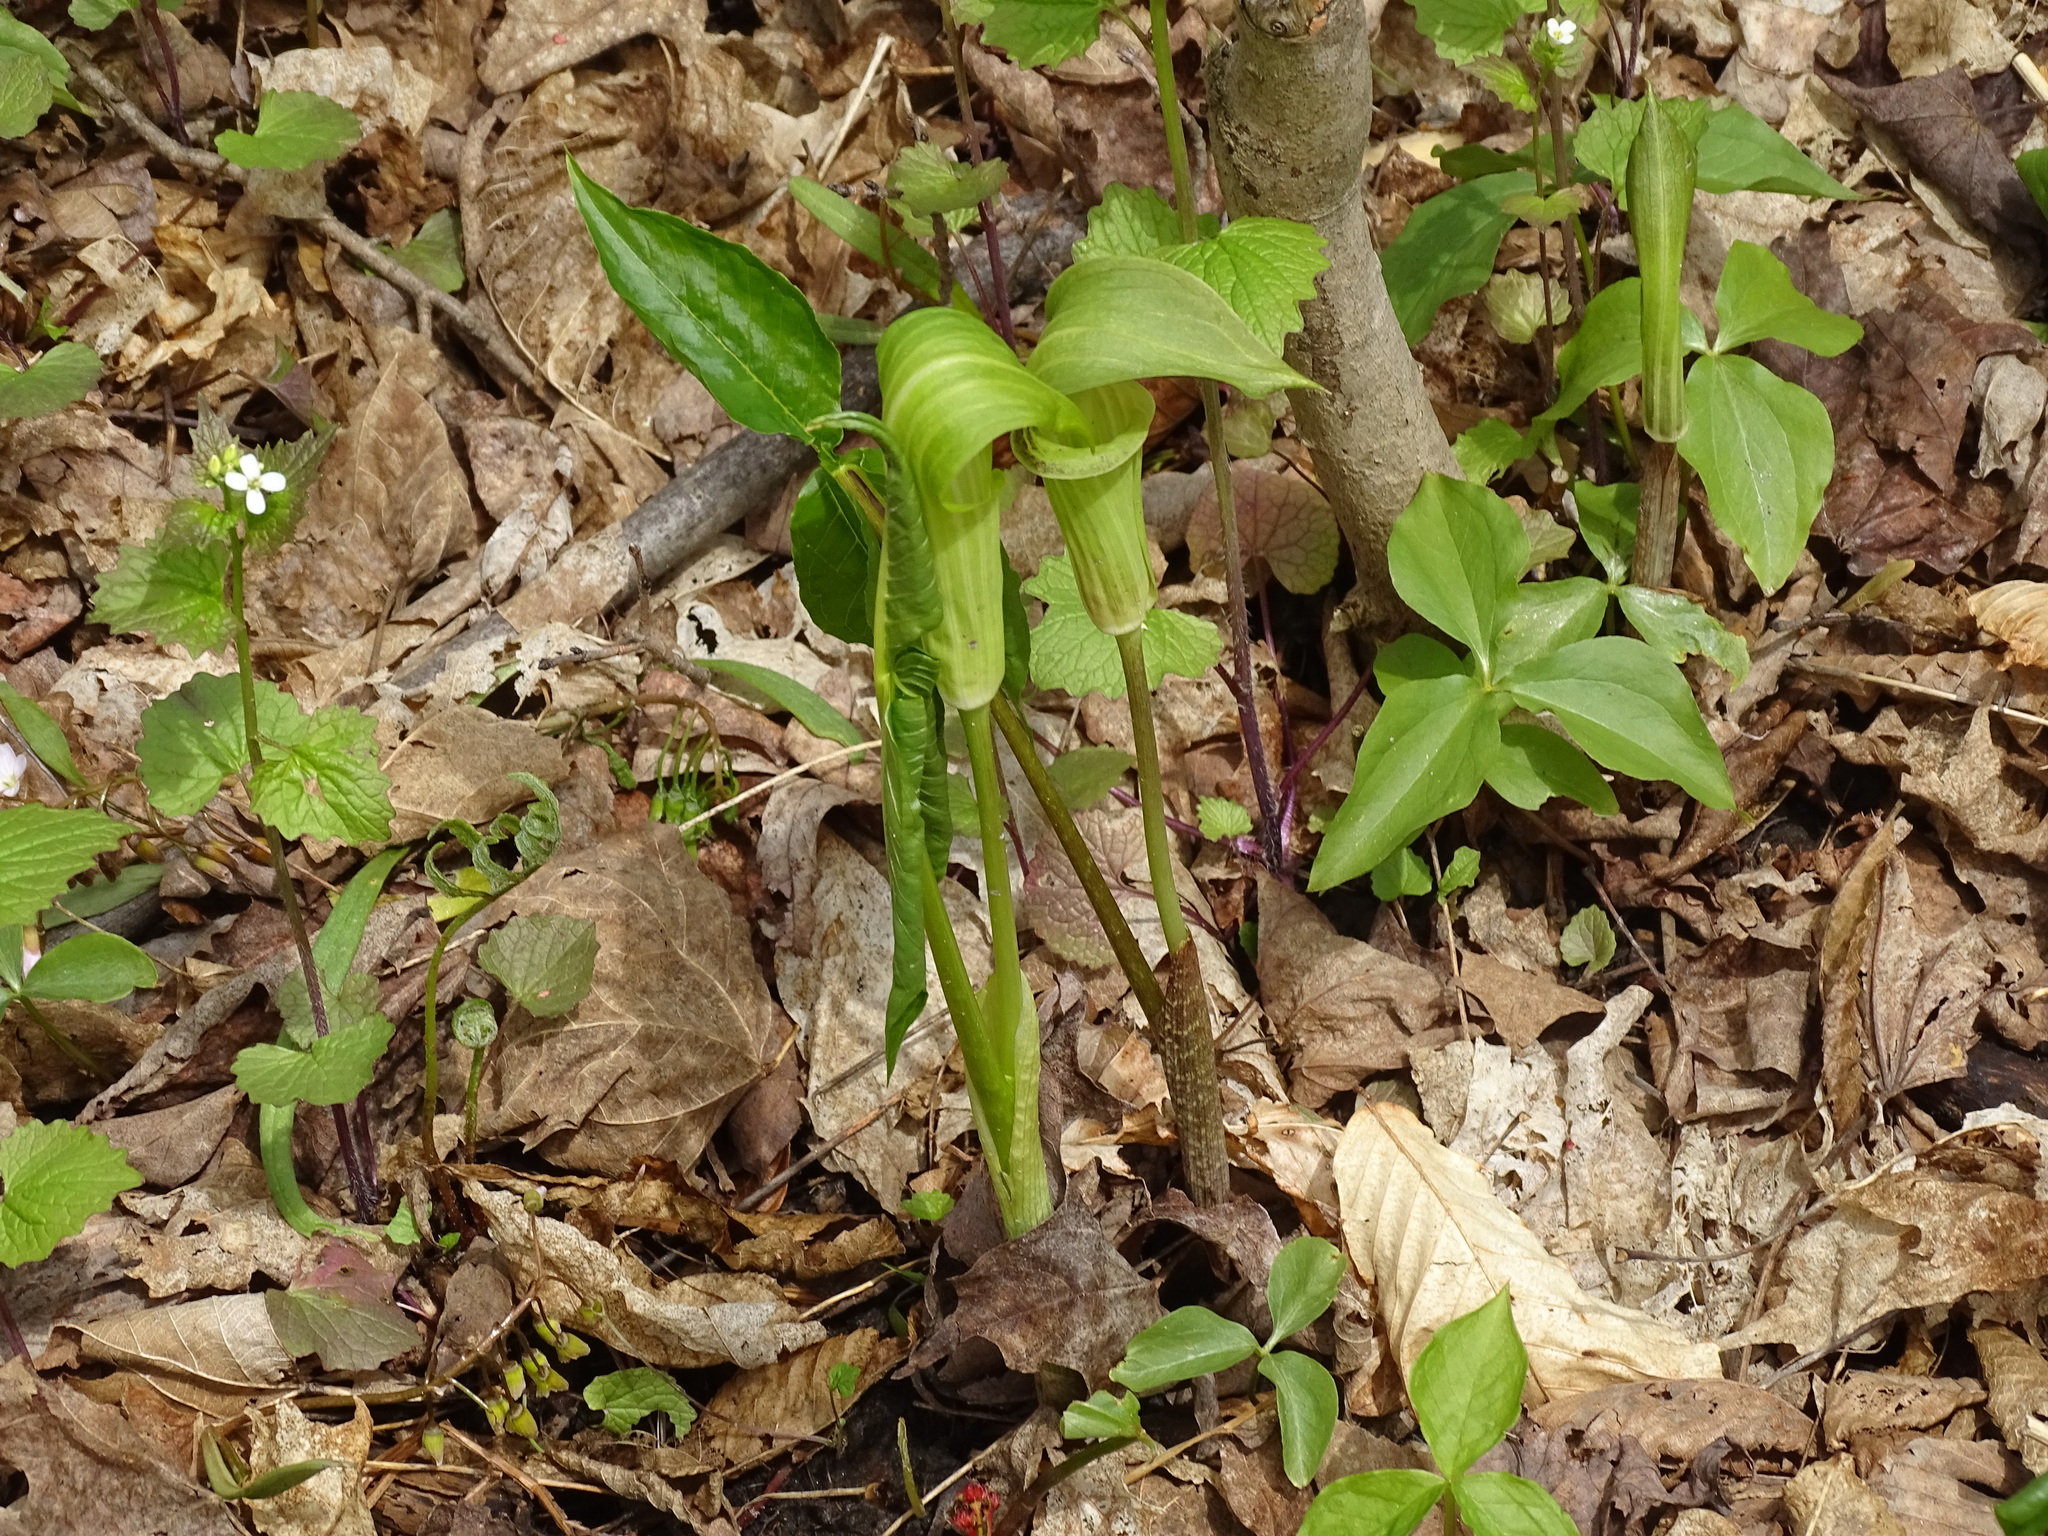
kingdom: Plantae
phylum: Tracheophyta
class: Liliopsida
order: Alismatales
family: Araceae
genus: Arisaema
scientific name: Arisaema triphyllum
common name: Jack-in-the-pulpit
